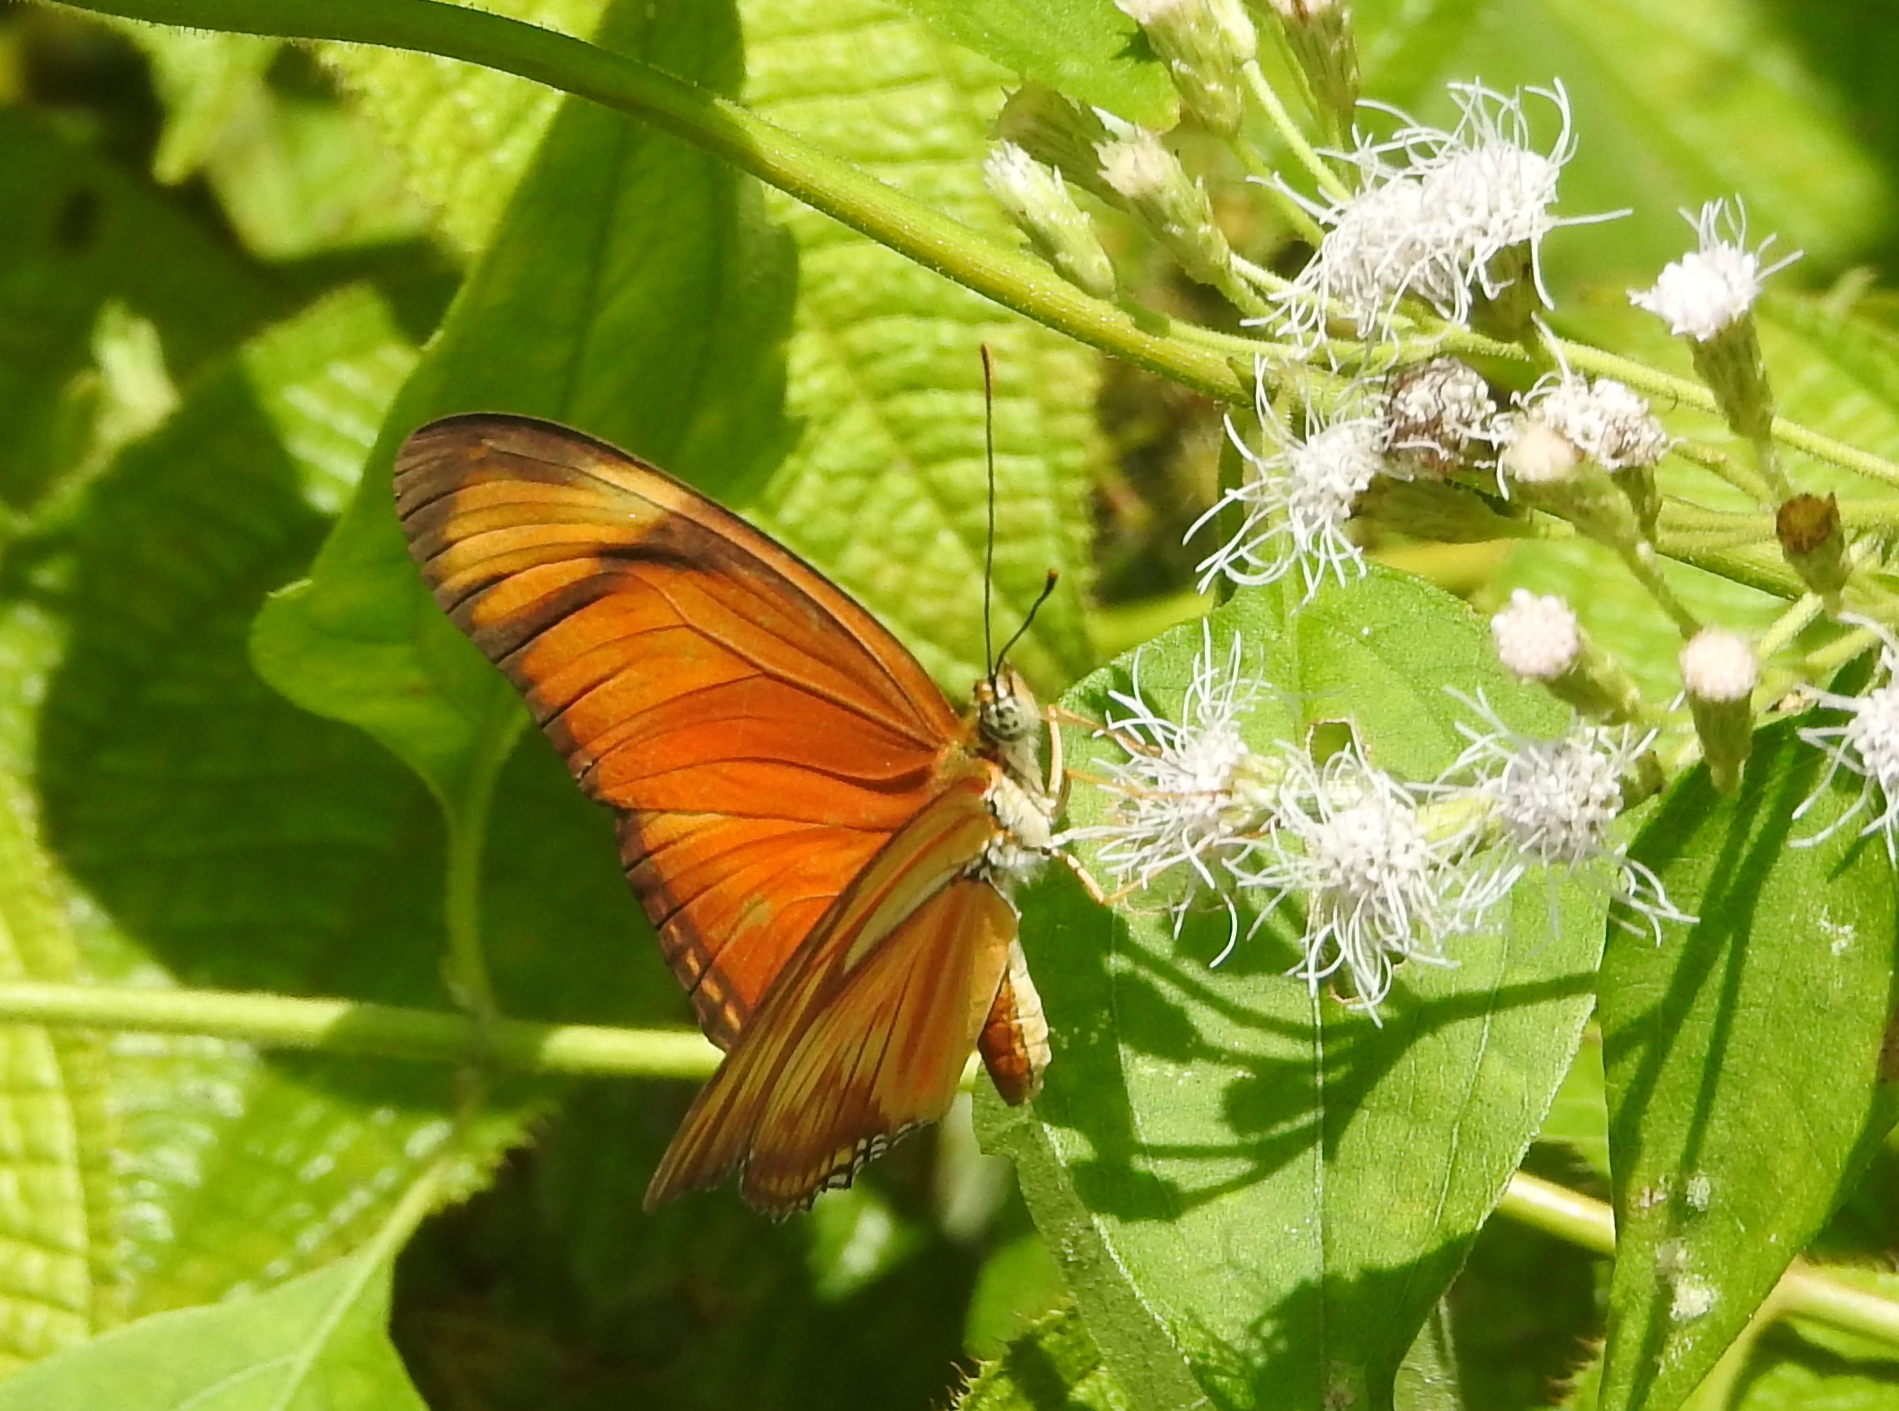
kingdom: Animalia
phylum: Arthropoda
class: Insecta
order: Lepidoptera
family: Nymphalidae
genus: Dryas
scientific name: Dryas iulia
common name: Flambeau
